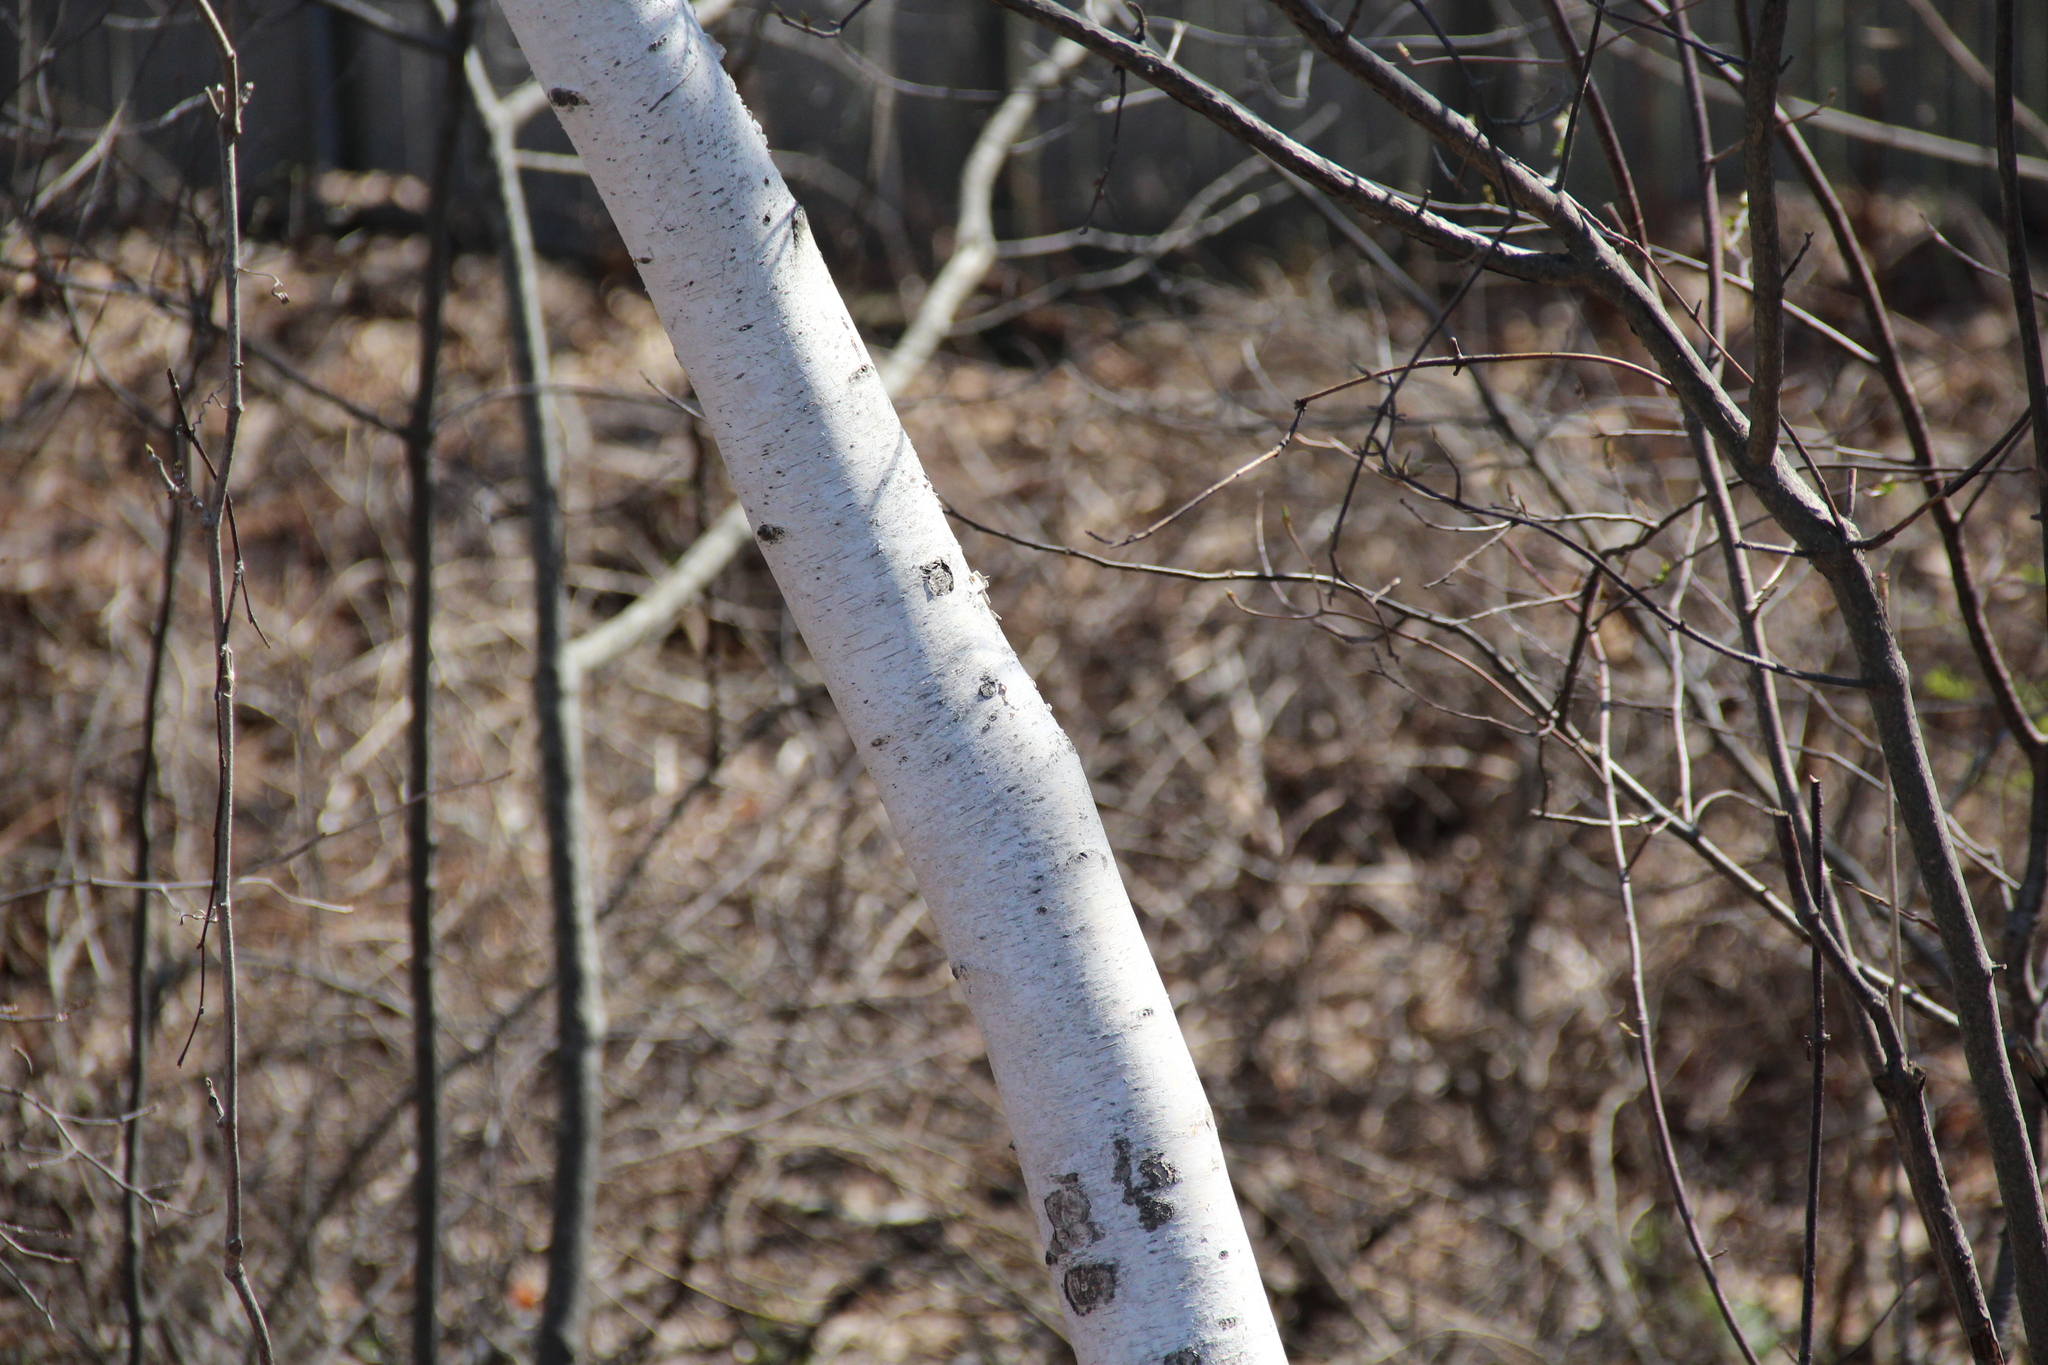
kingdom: Plantae
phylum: Tracheophyta
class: Magnoliopsida
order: Fagales
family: Betulaceae
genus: Betula
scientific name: Betula papyrifera
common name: Paper birch
